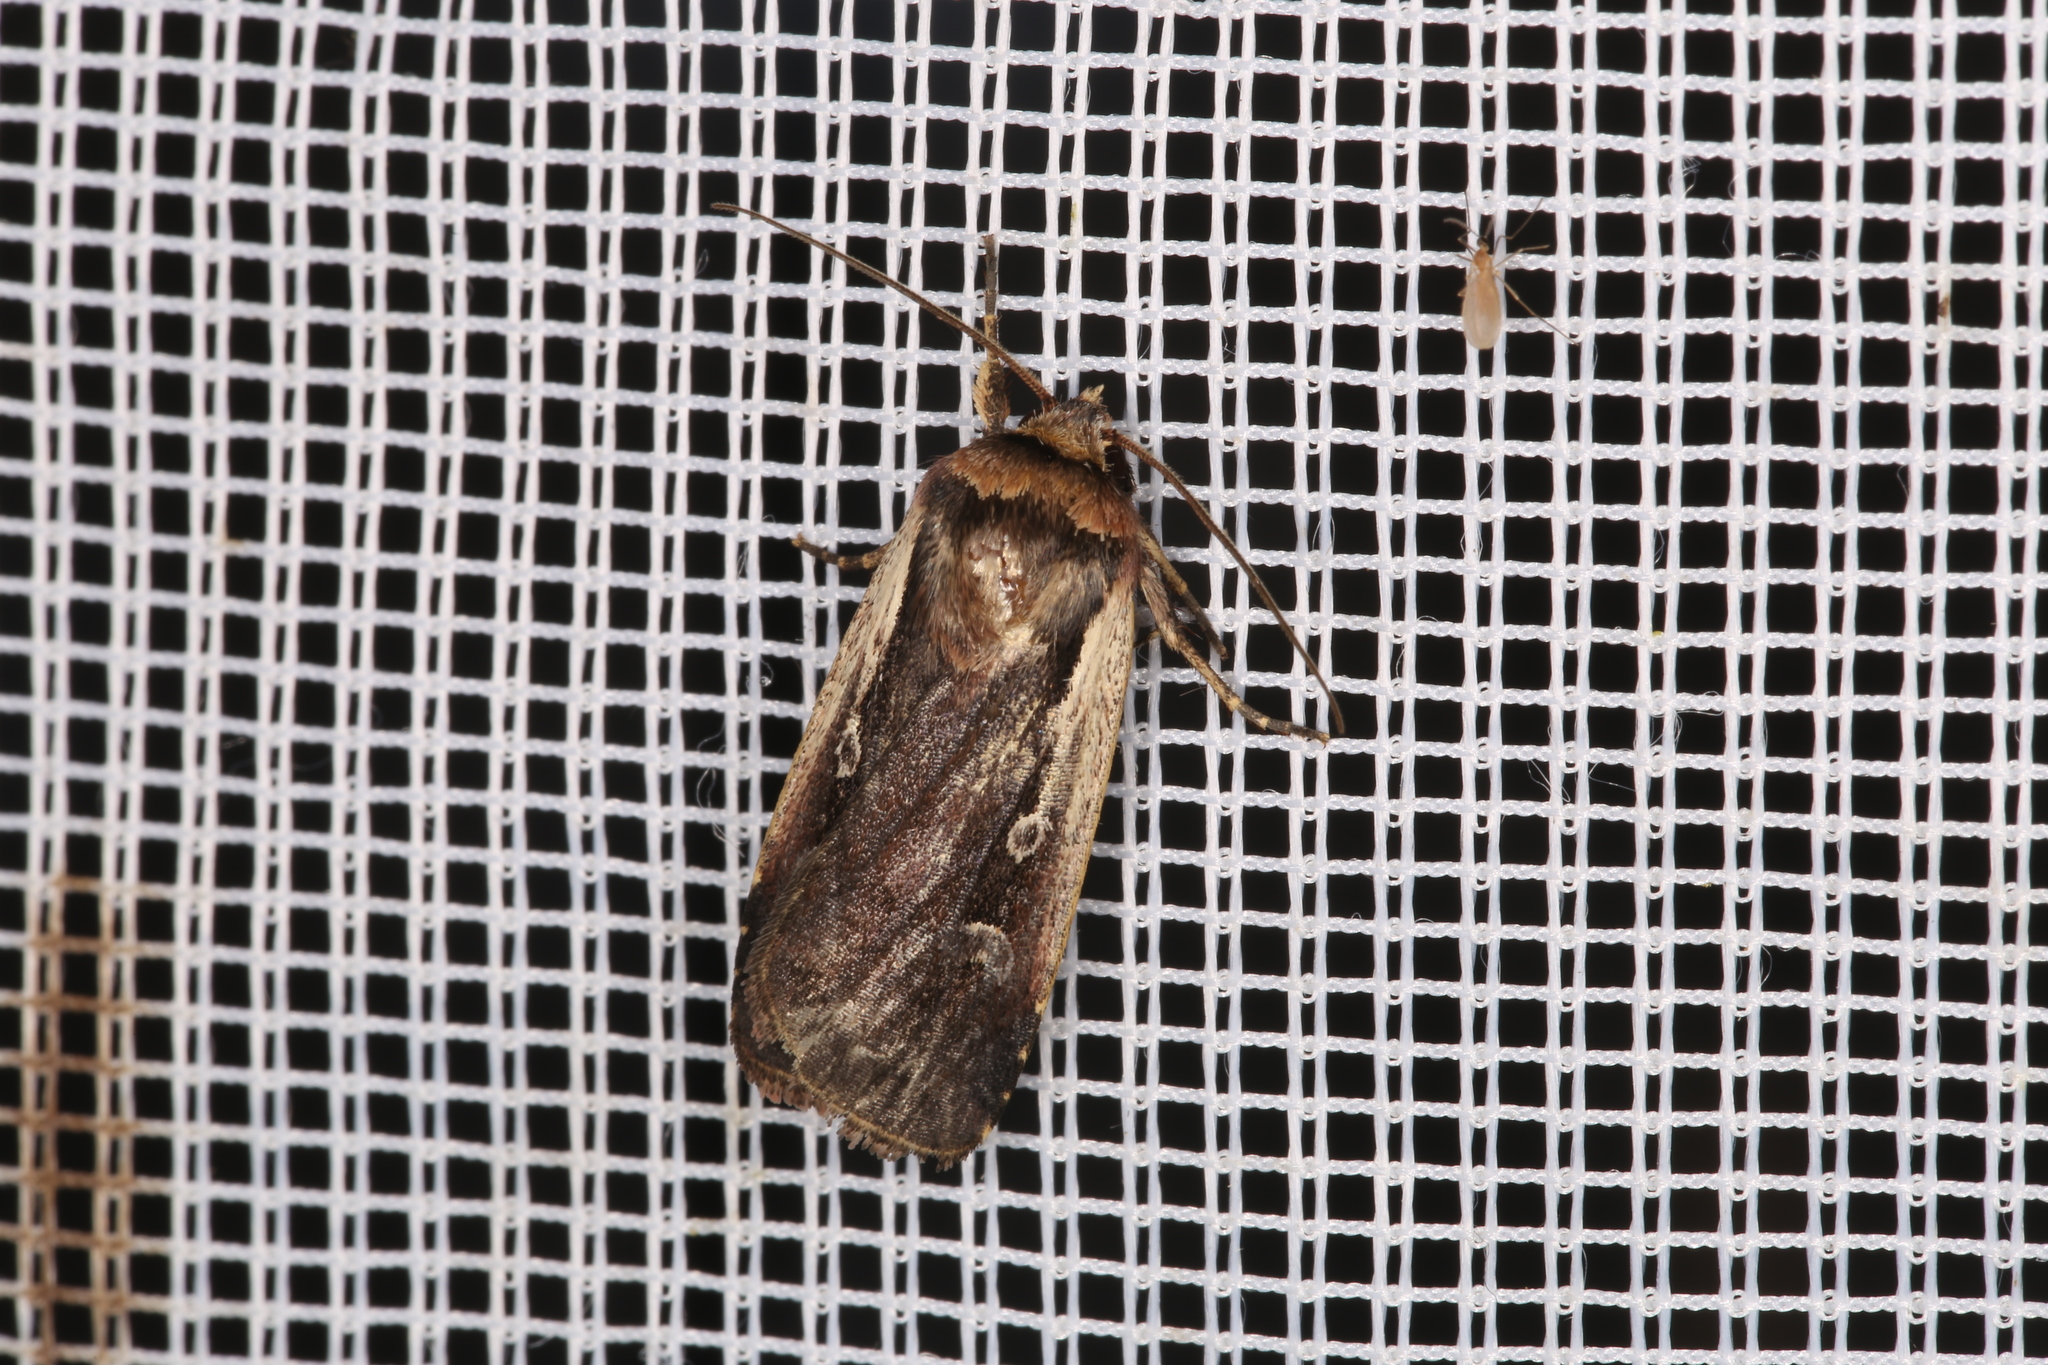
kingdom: Animalia
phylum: Arthropoda
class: Insecta
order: Lepidoptera
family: Noctuidae
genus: Ochropleura
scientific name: Ochropleura plecta
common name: Flame shoulder
